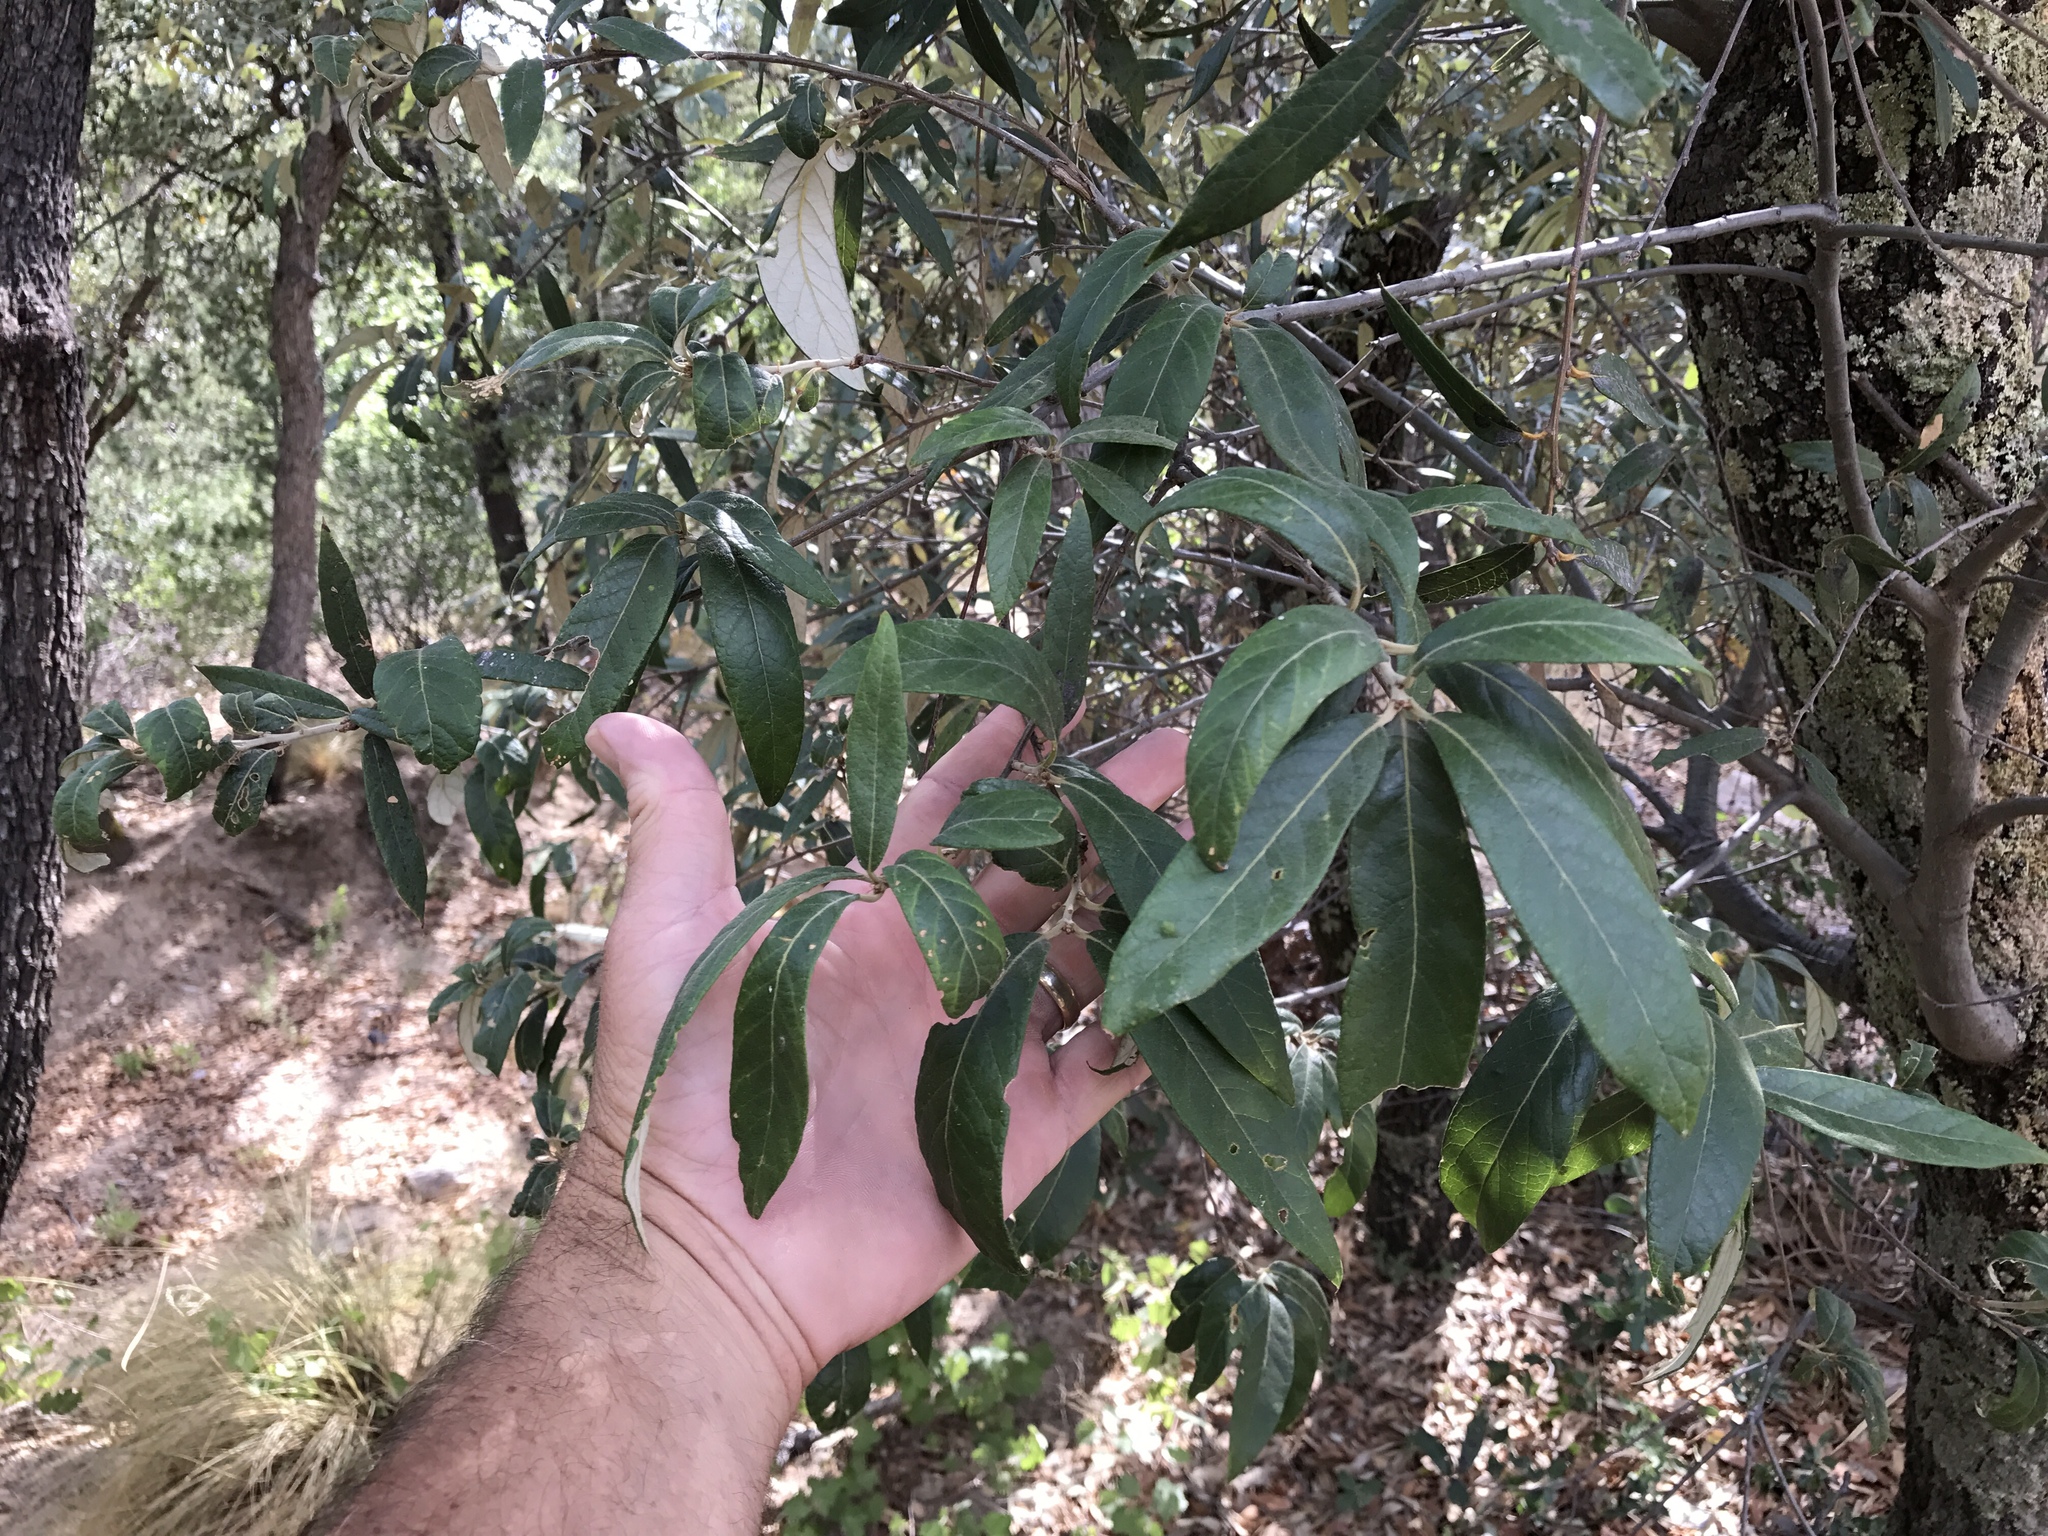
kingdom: Plantae
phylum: Tracheophyta
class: Magnoliopsida
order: Fagales
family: Fagaceae
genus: Quercus
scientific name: Quercus hypoleucoides
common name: Silverleaf oak
